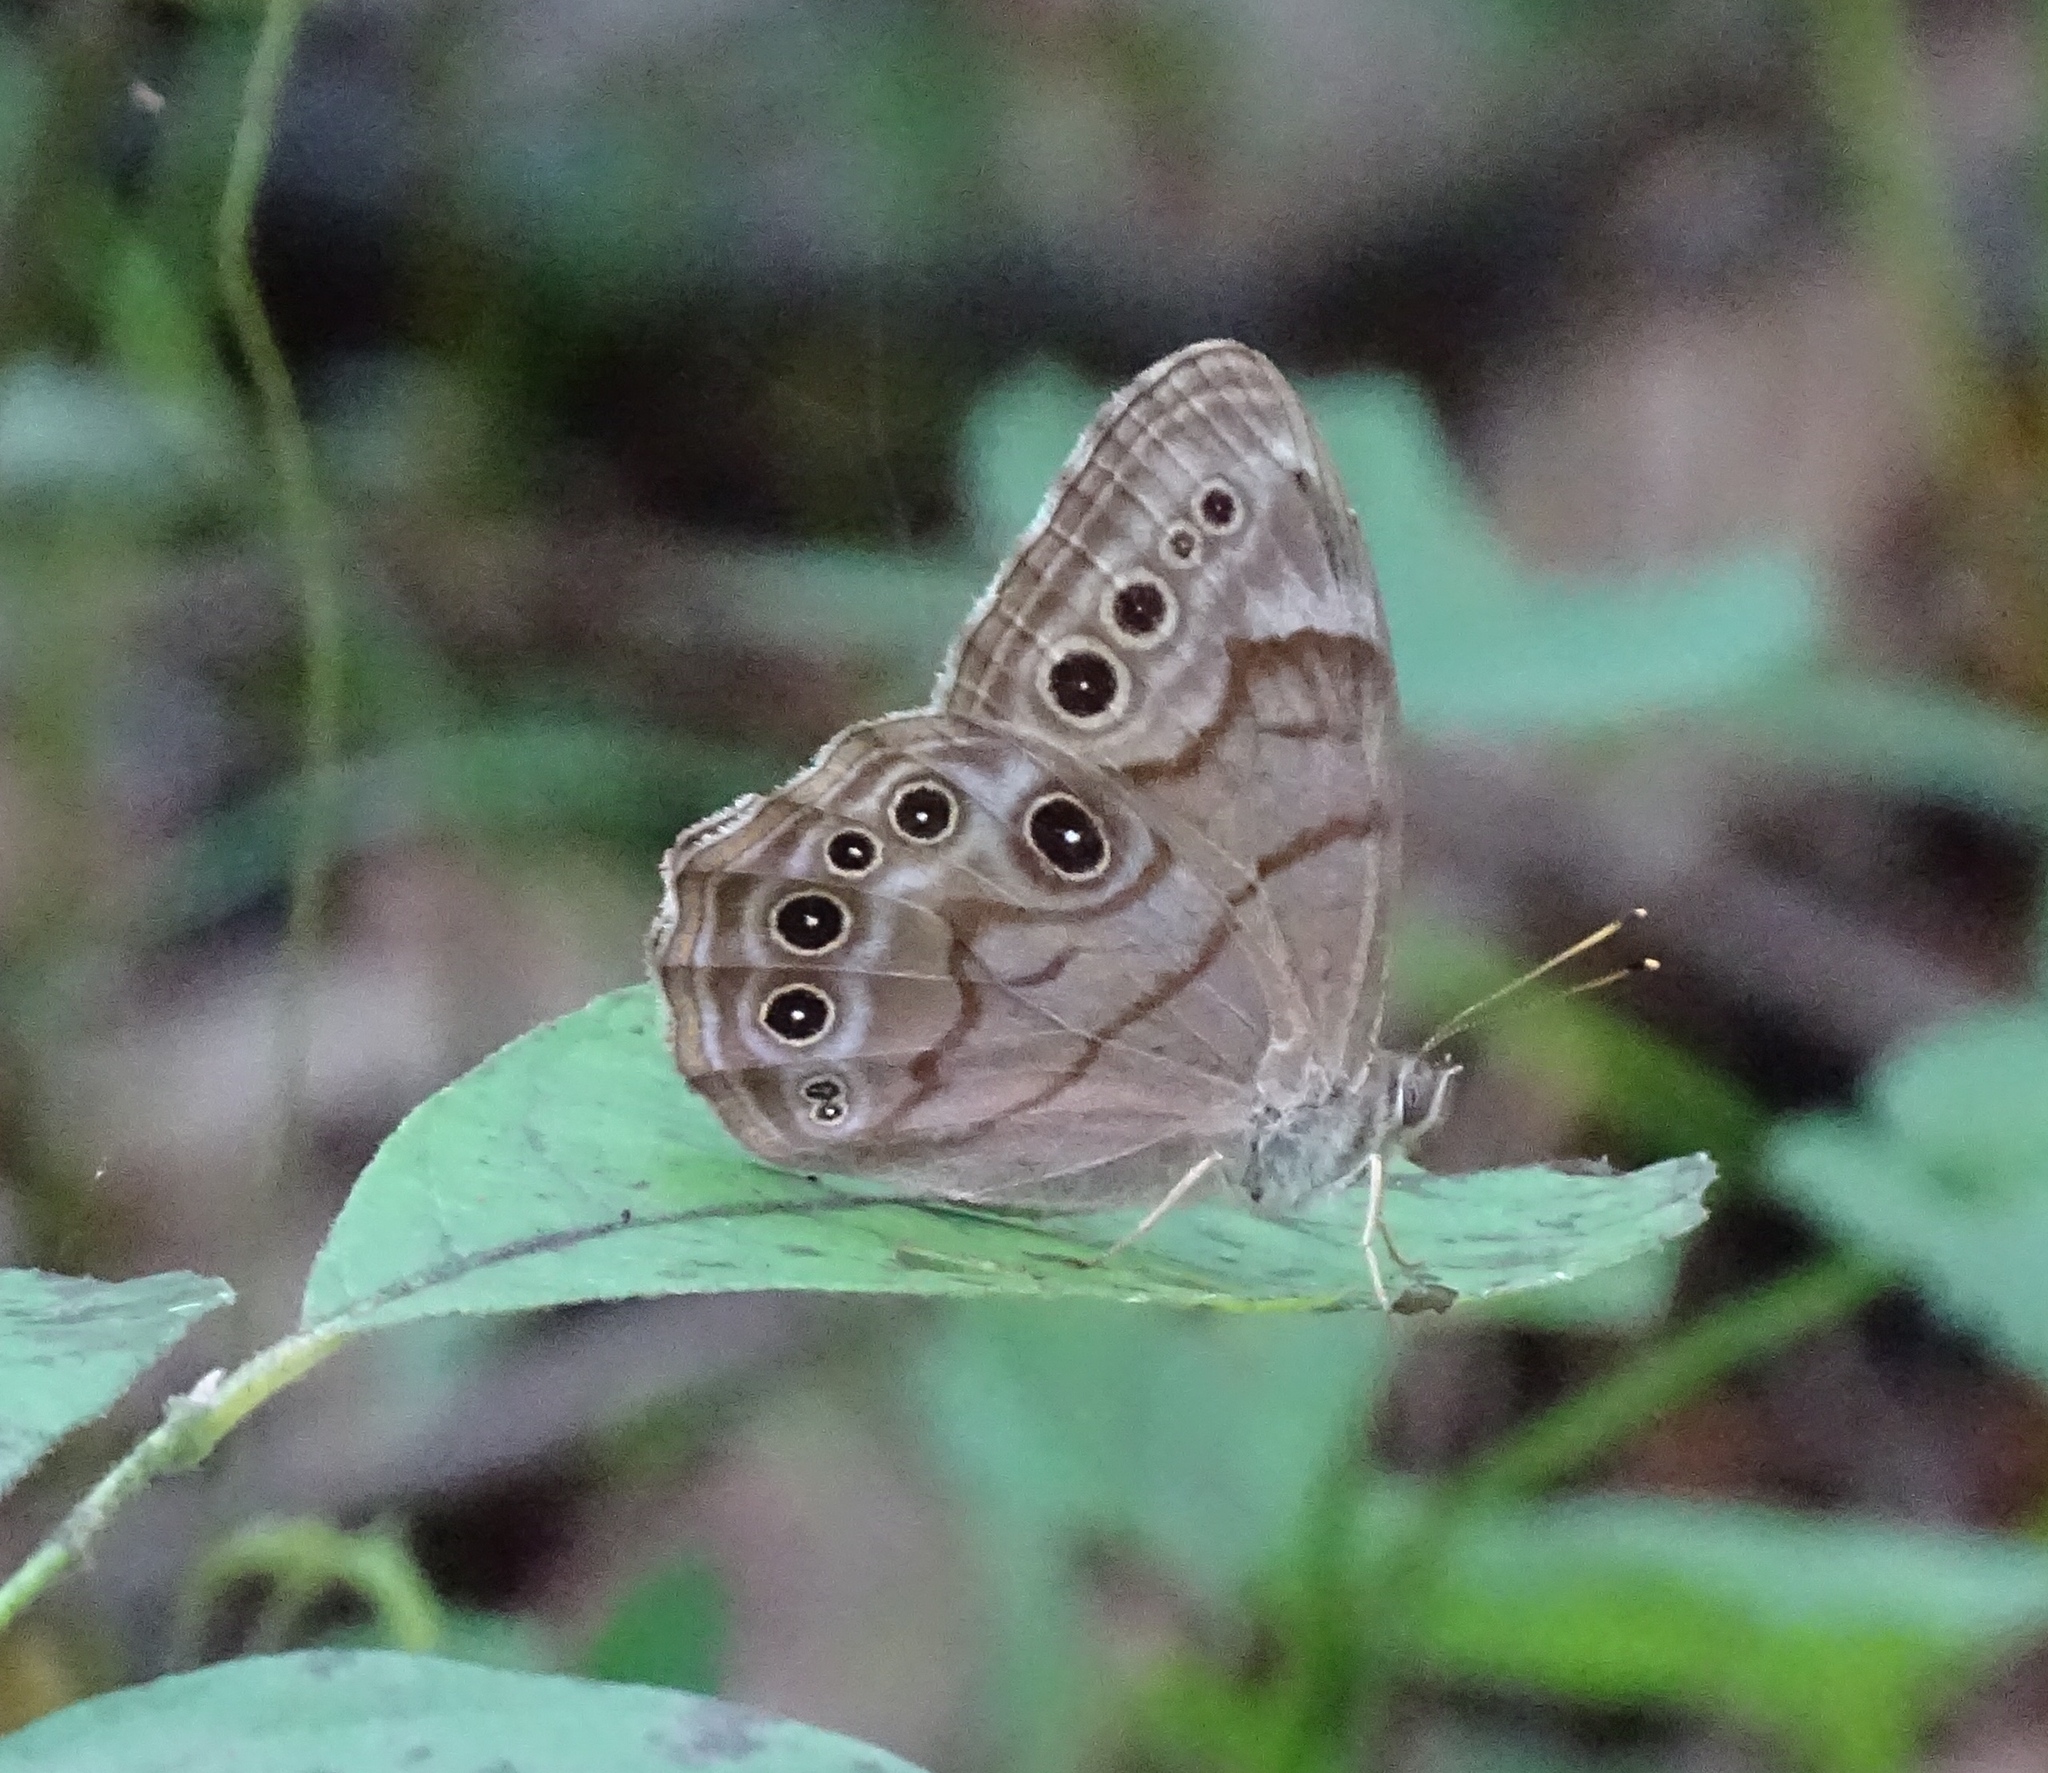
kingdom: Animalia
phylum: Arthropoda
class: Insecta
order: Lepidoptera
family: Nymphalidae
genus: Lethe
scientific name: Lethe anthedon
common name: Northern pearly-eye
